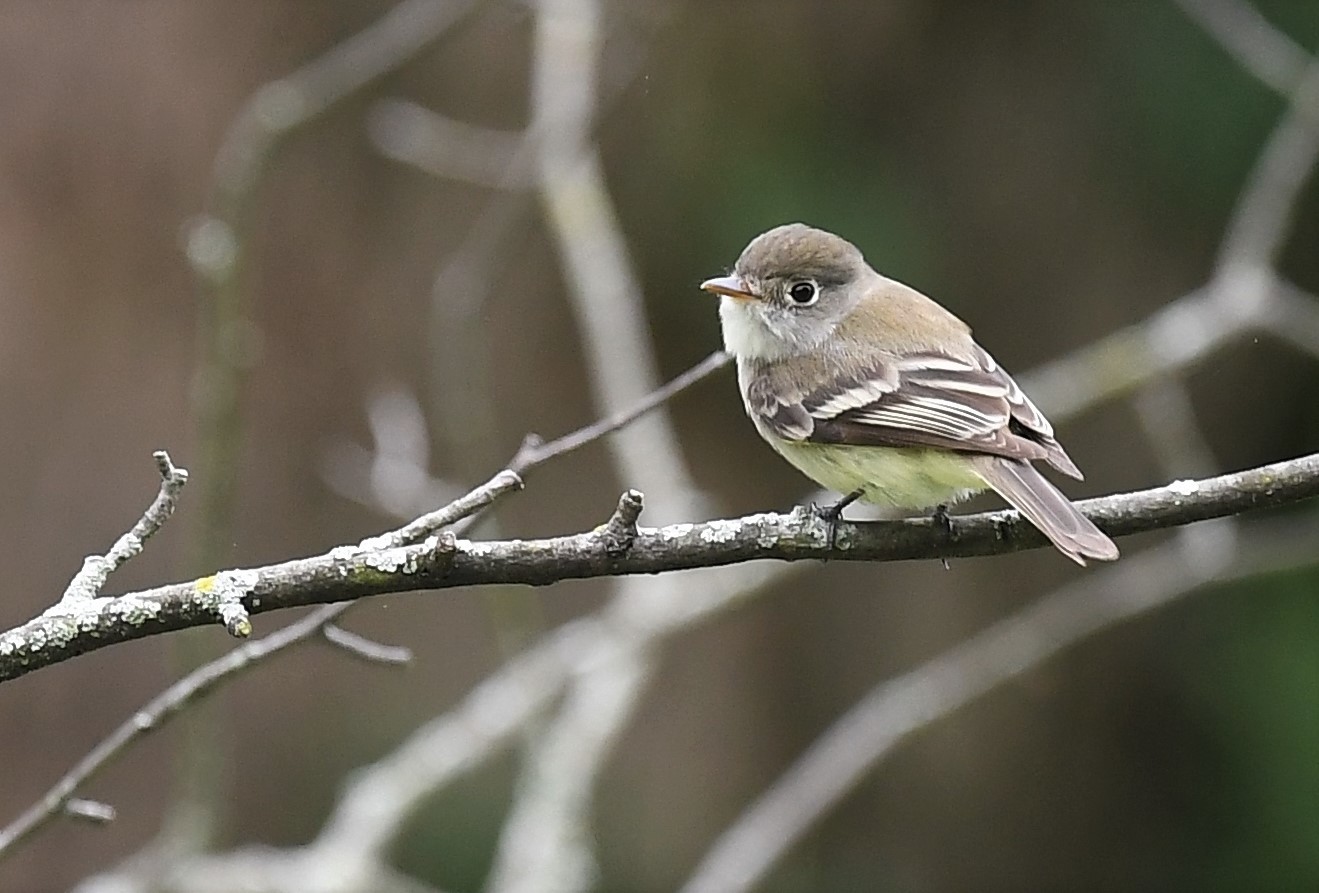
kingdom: Animalia
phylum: Chordata
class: Aves
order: Passeriformes
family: Tyrannidae
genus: Empidonax
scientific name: Empidonax minimus
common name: Least flycatcher
